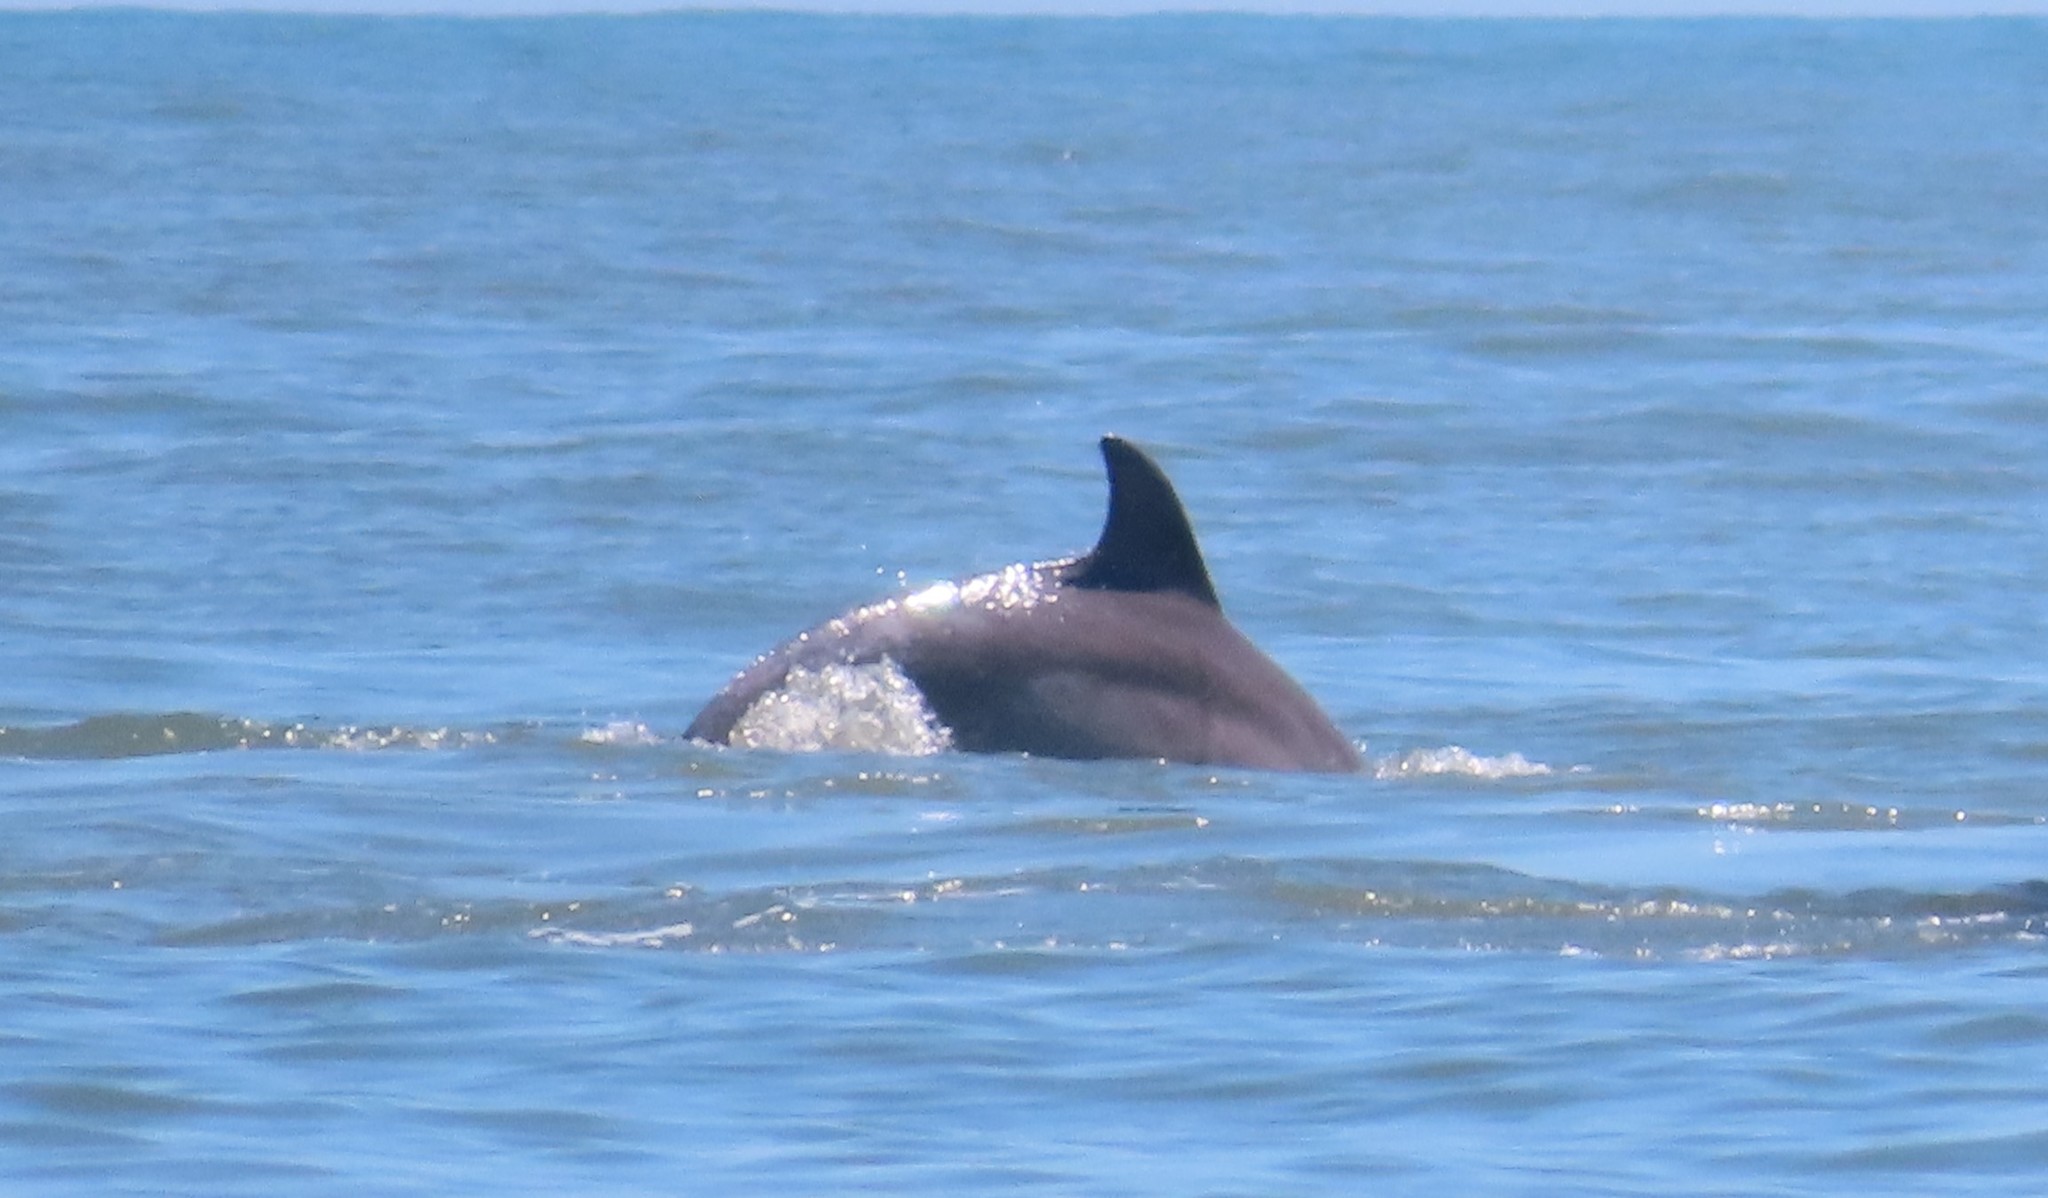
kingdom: Animalia
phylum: Chordata
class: Mammalia
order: Cetacea
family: Delphinidae
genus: Tursiops
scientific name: Tursiops truncatus
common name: Bottlenose dolphin
